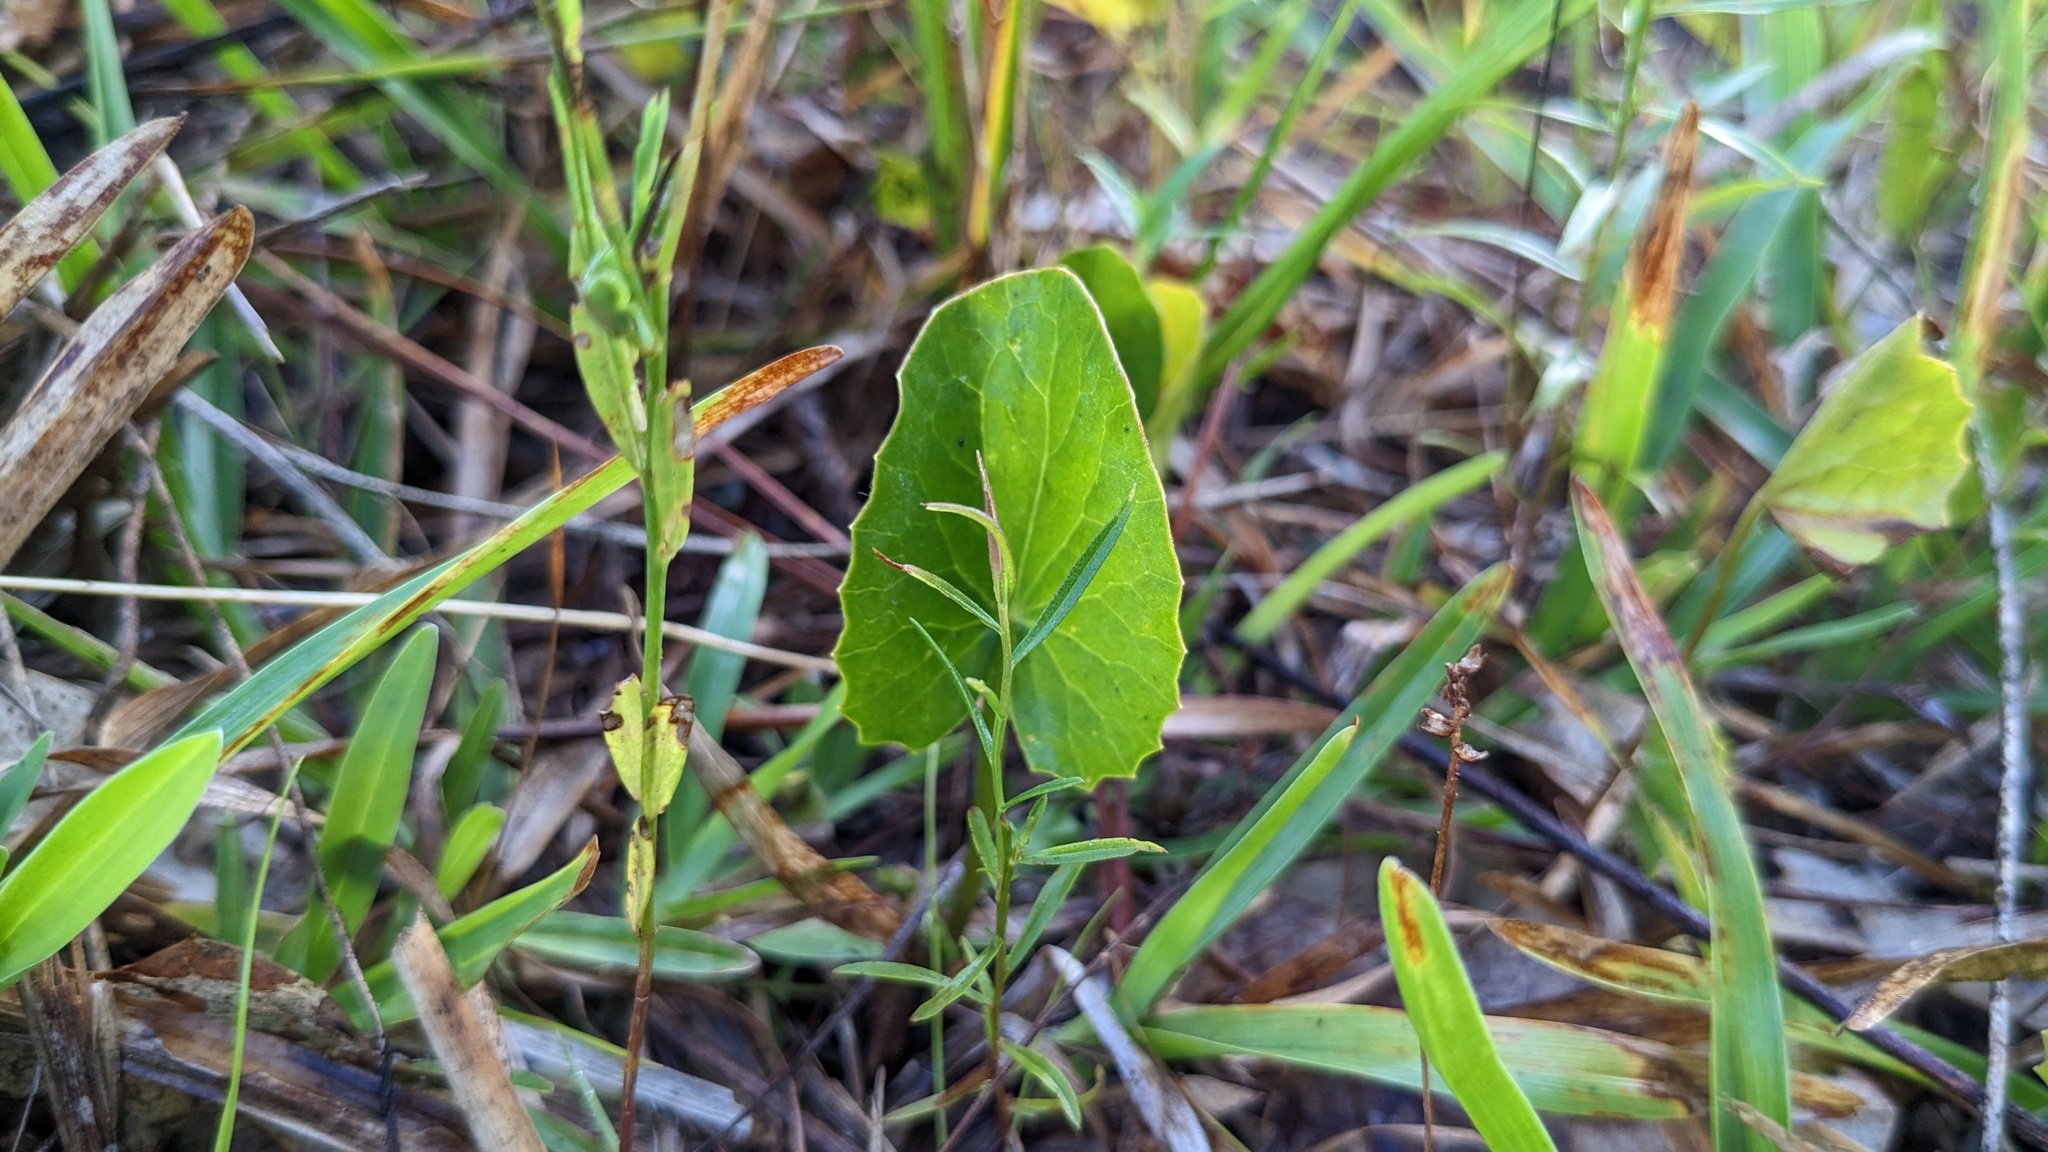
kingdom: Plantae
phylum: Tracheophyta
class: Magnoliopsida
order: Apiales
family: Apiaceae
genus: Centella
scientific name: Centella erecta
